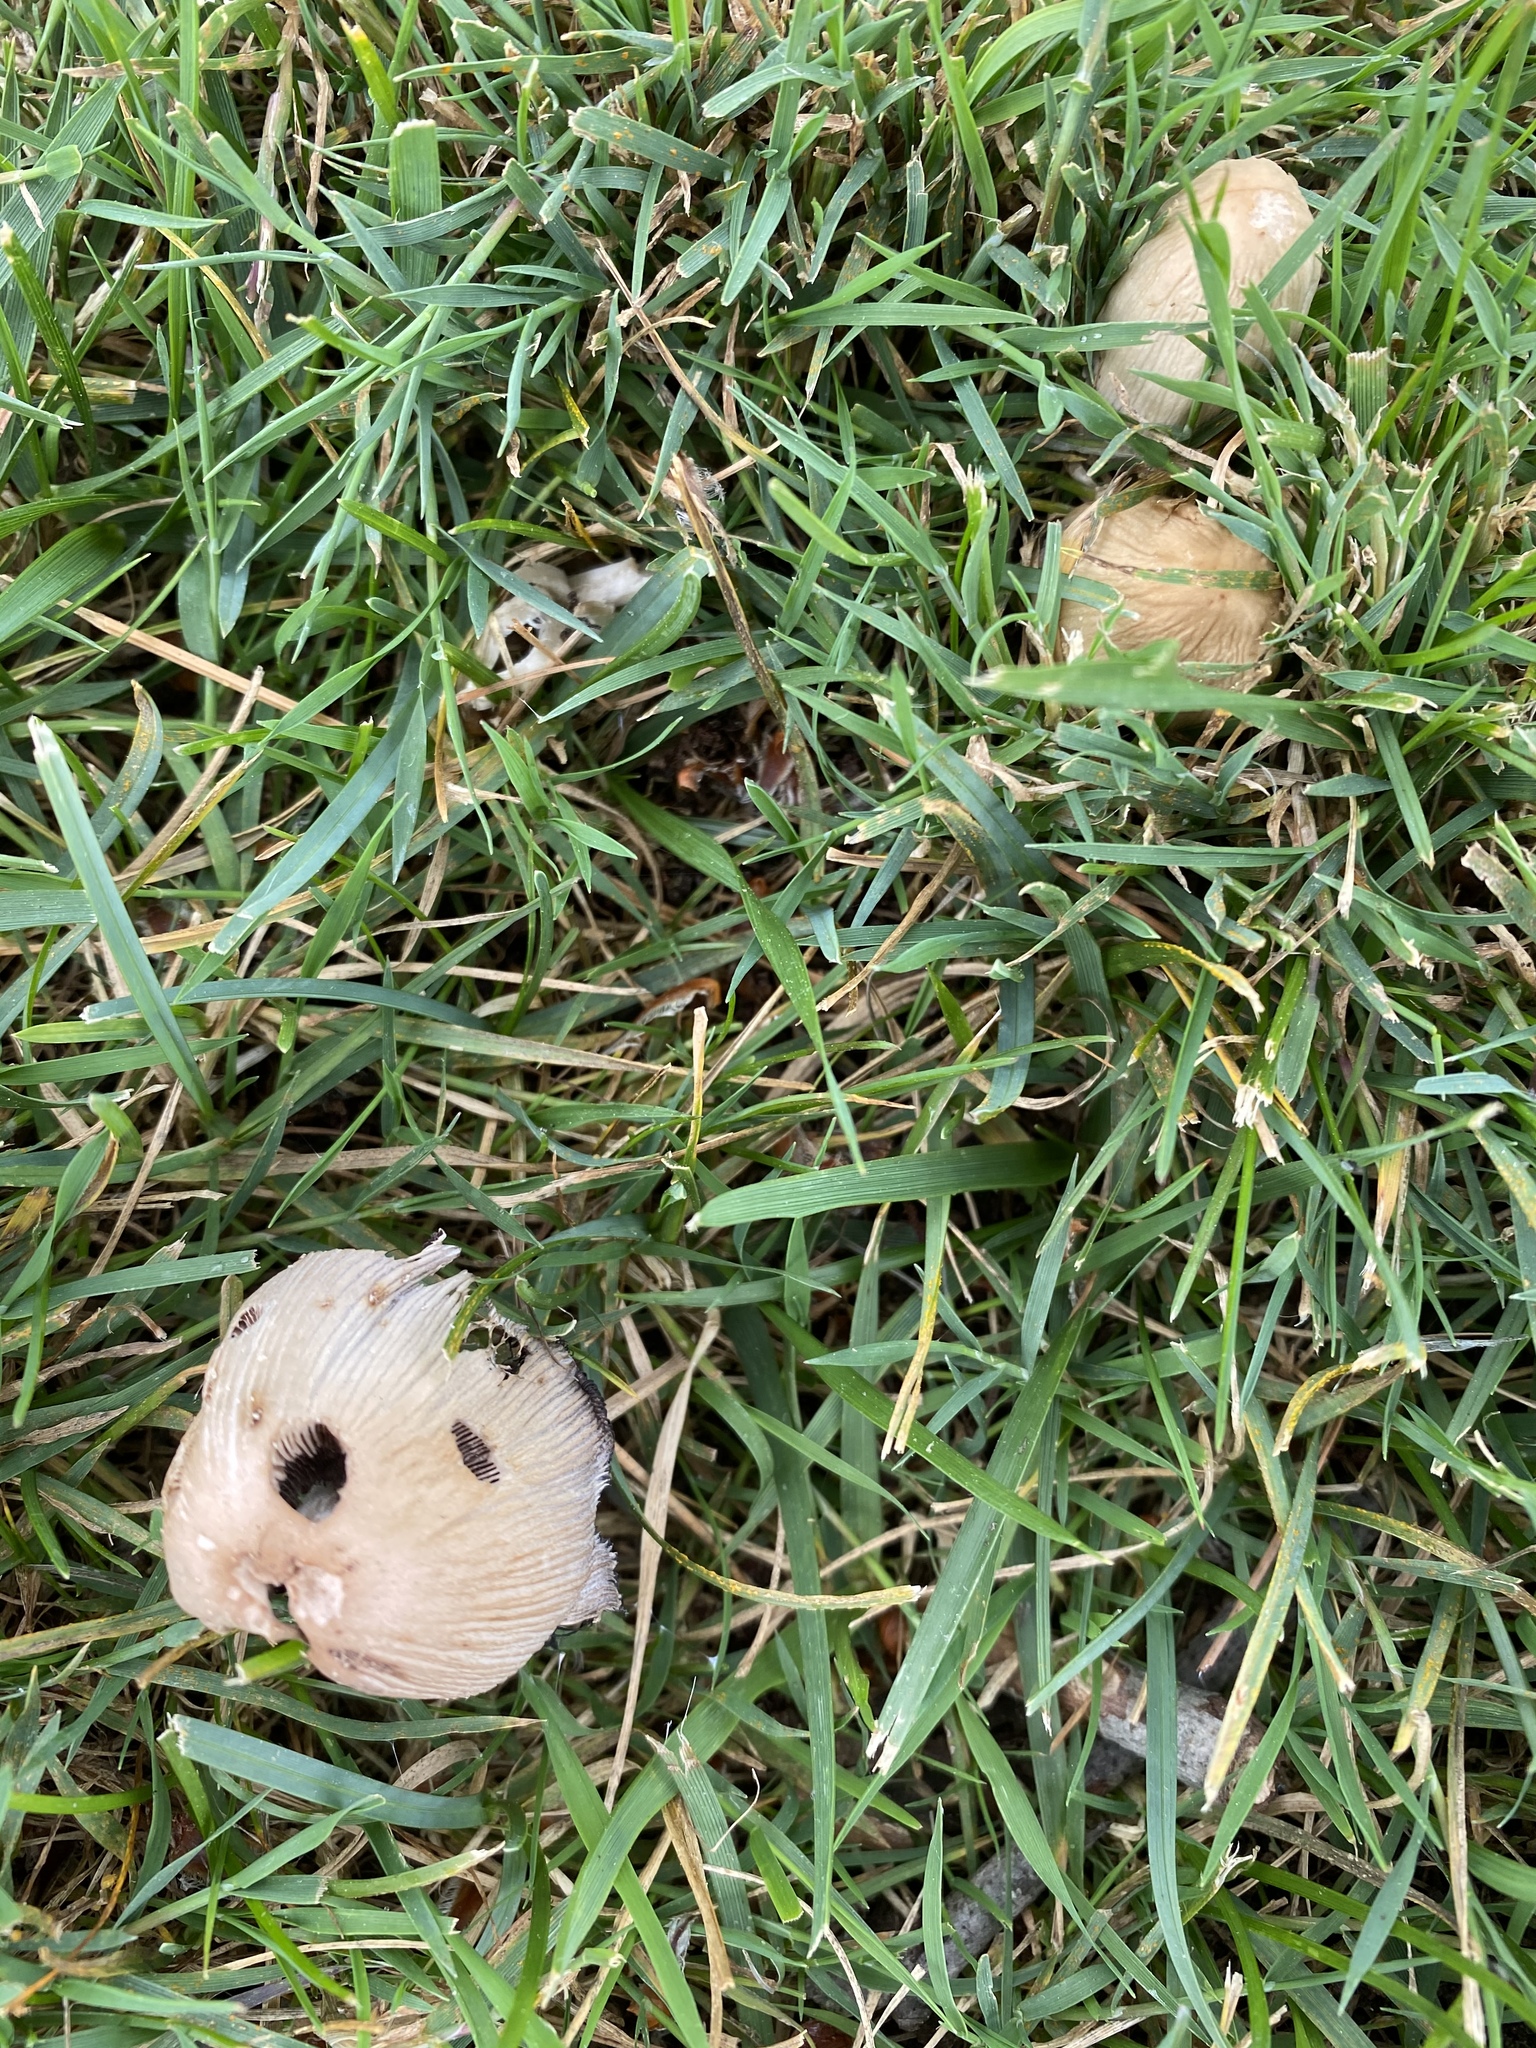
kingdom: Fungi
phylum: Basidiomycota
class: Agaricomycetes
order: Agaricales
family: Psathyrellaceae
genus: Coprinellus
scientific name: Coprinellus micaceus
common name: Glistening ink-cap
